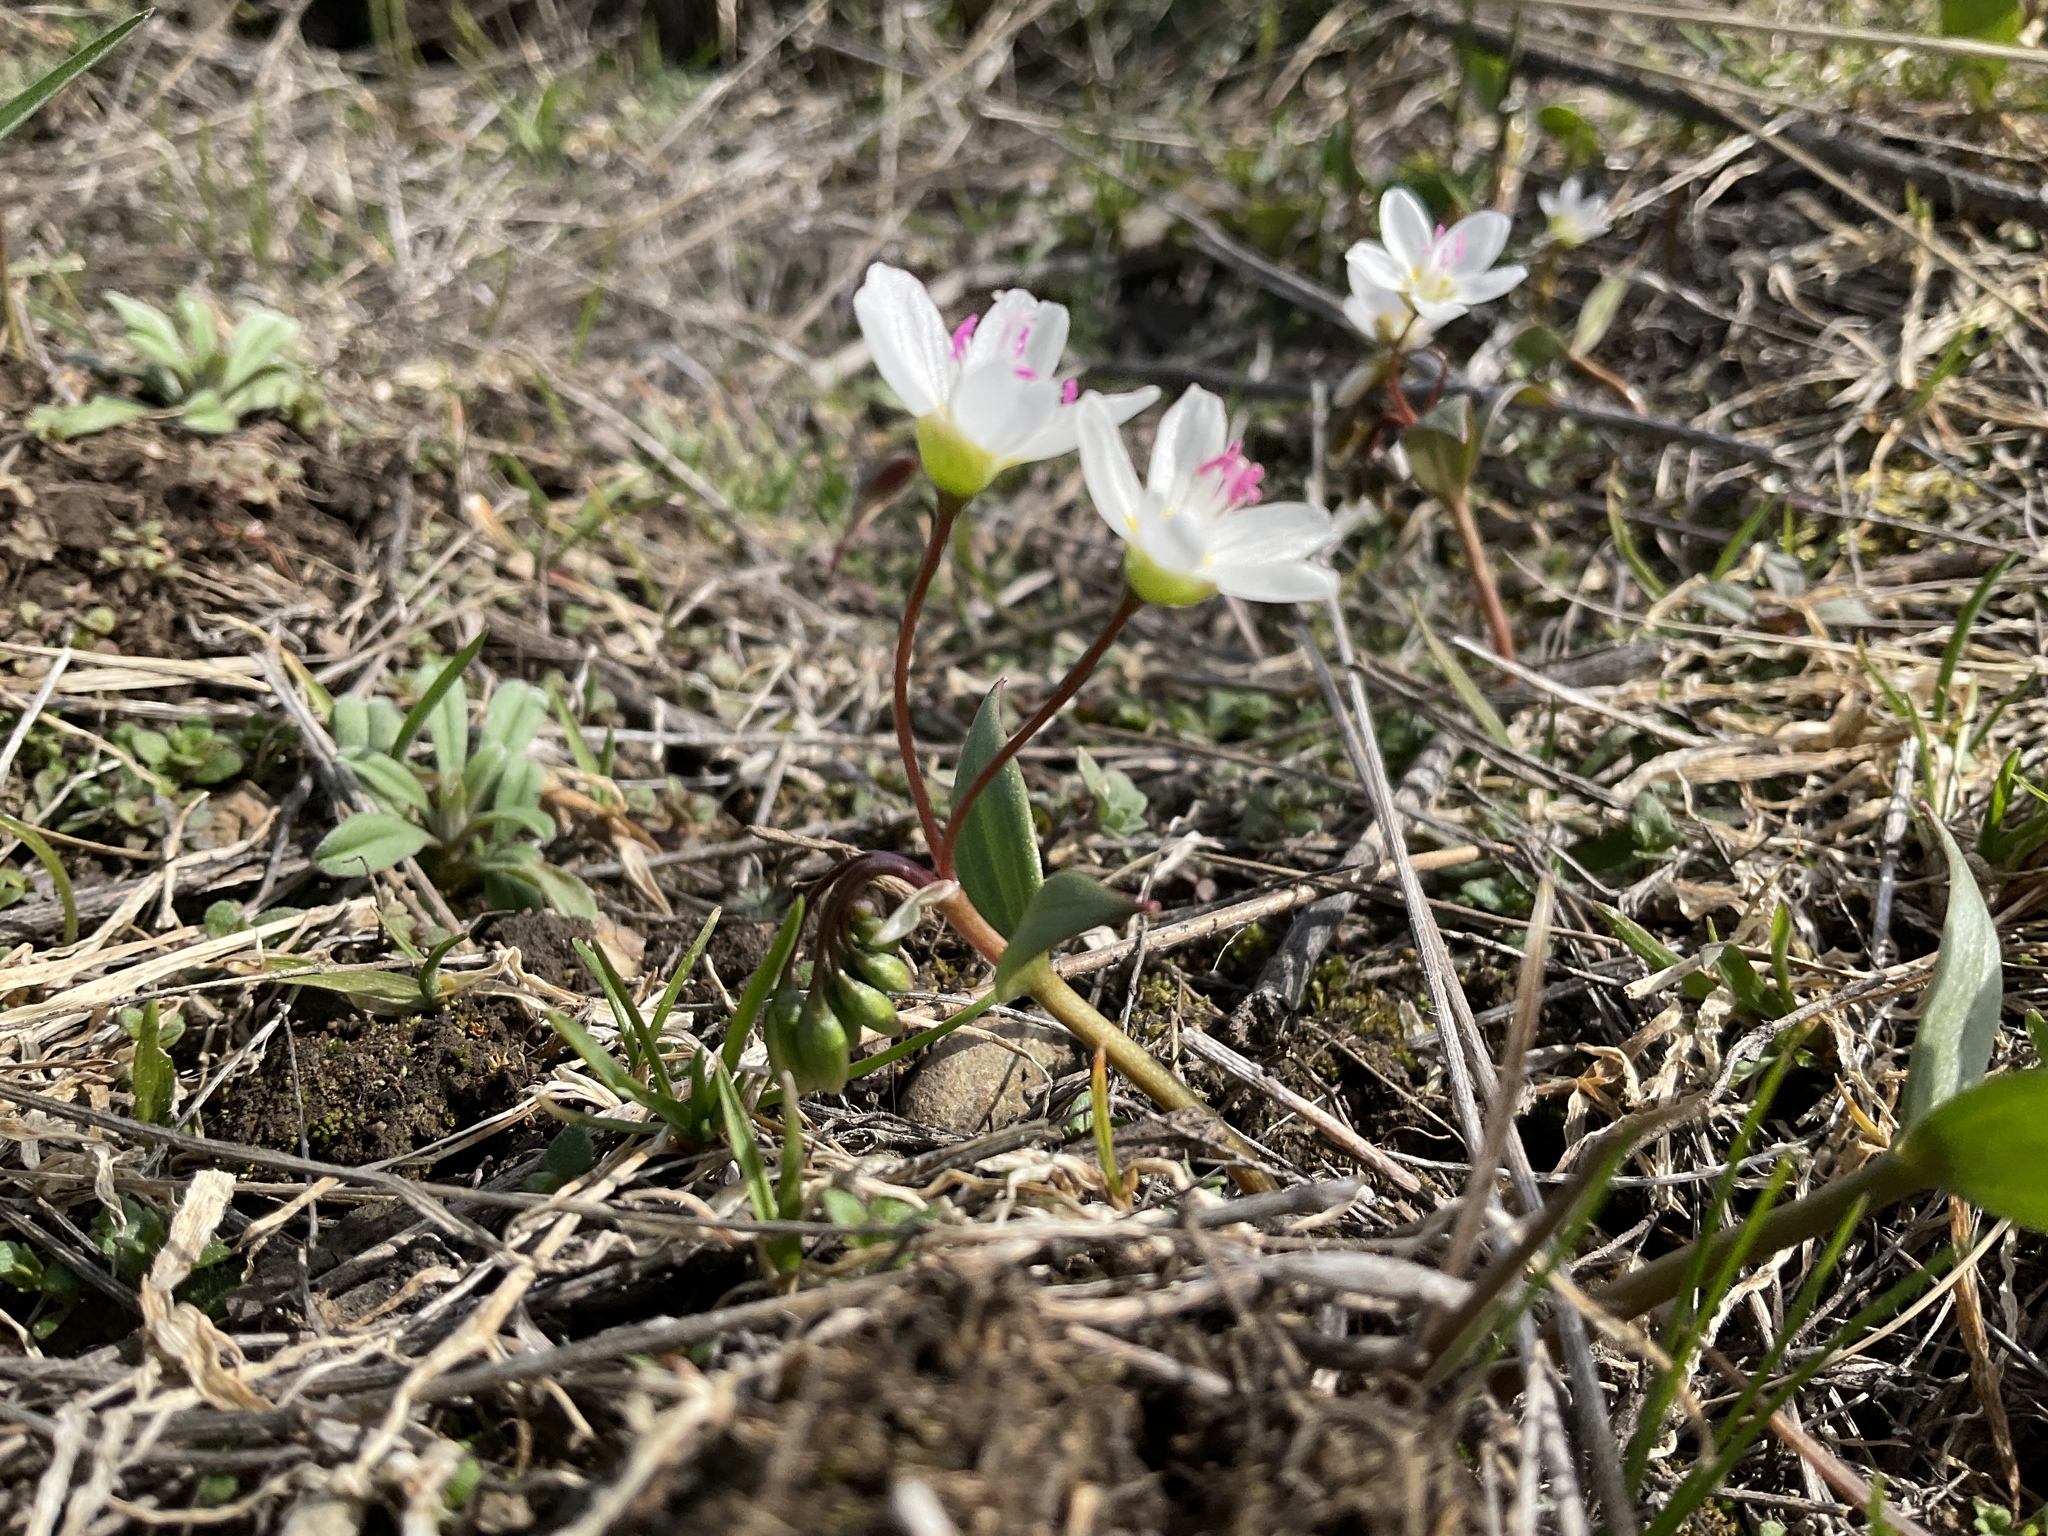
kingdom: Plantae
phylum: Tracheophyta
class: Magnoliopsida
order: Caryophyllales
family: Montiaceae
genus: Claytonia
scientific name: Claytonia lanceolata
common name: Western spring-beauty
